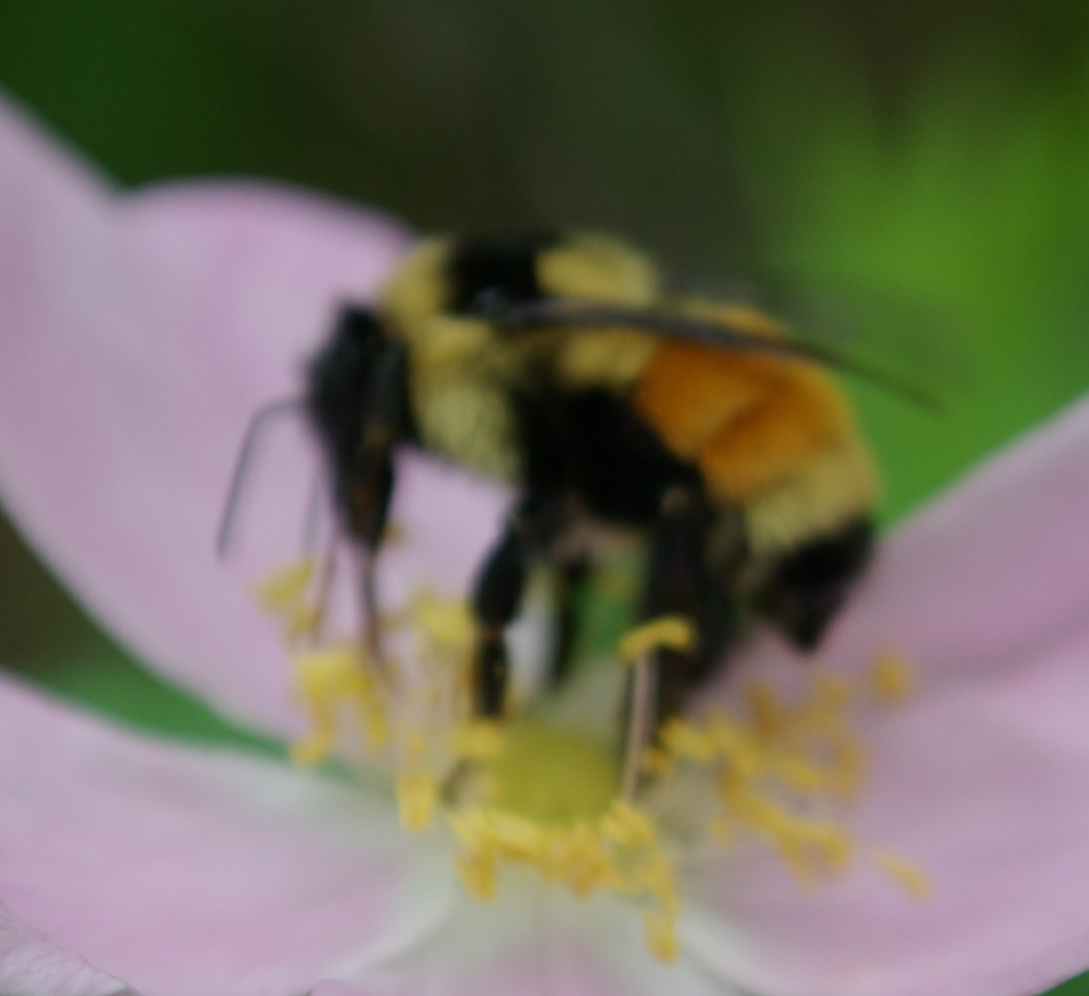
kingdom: Animalia
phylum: Arthropoda
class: Insecta
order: Hymenoptera
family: Apidae
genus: Bombus
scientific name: Bombus ternarius
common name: Tri-colored bumble bee
